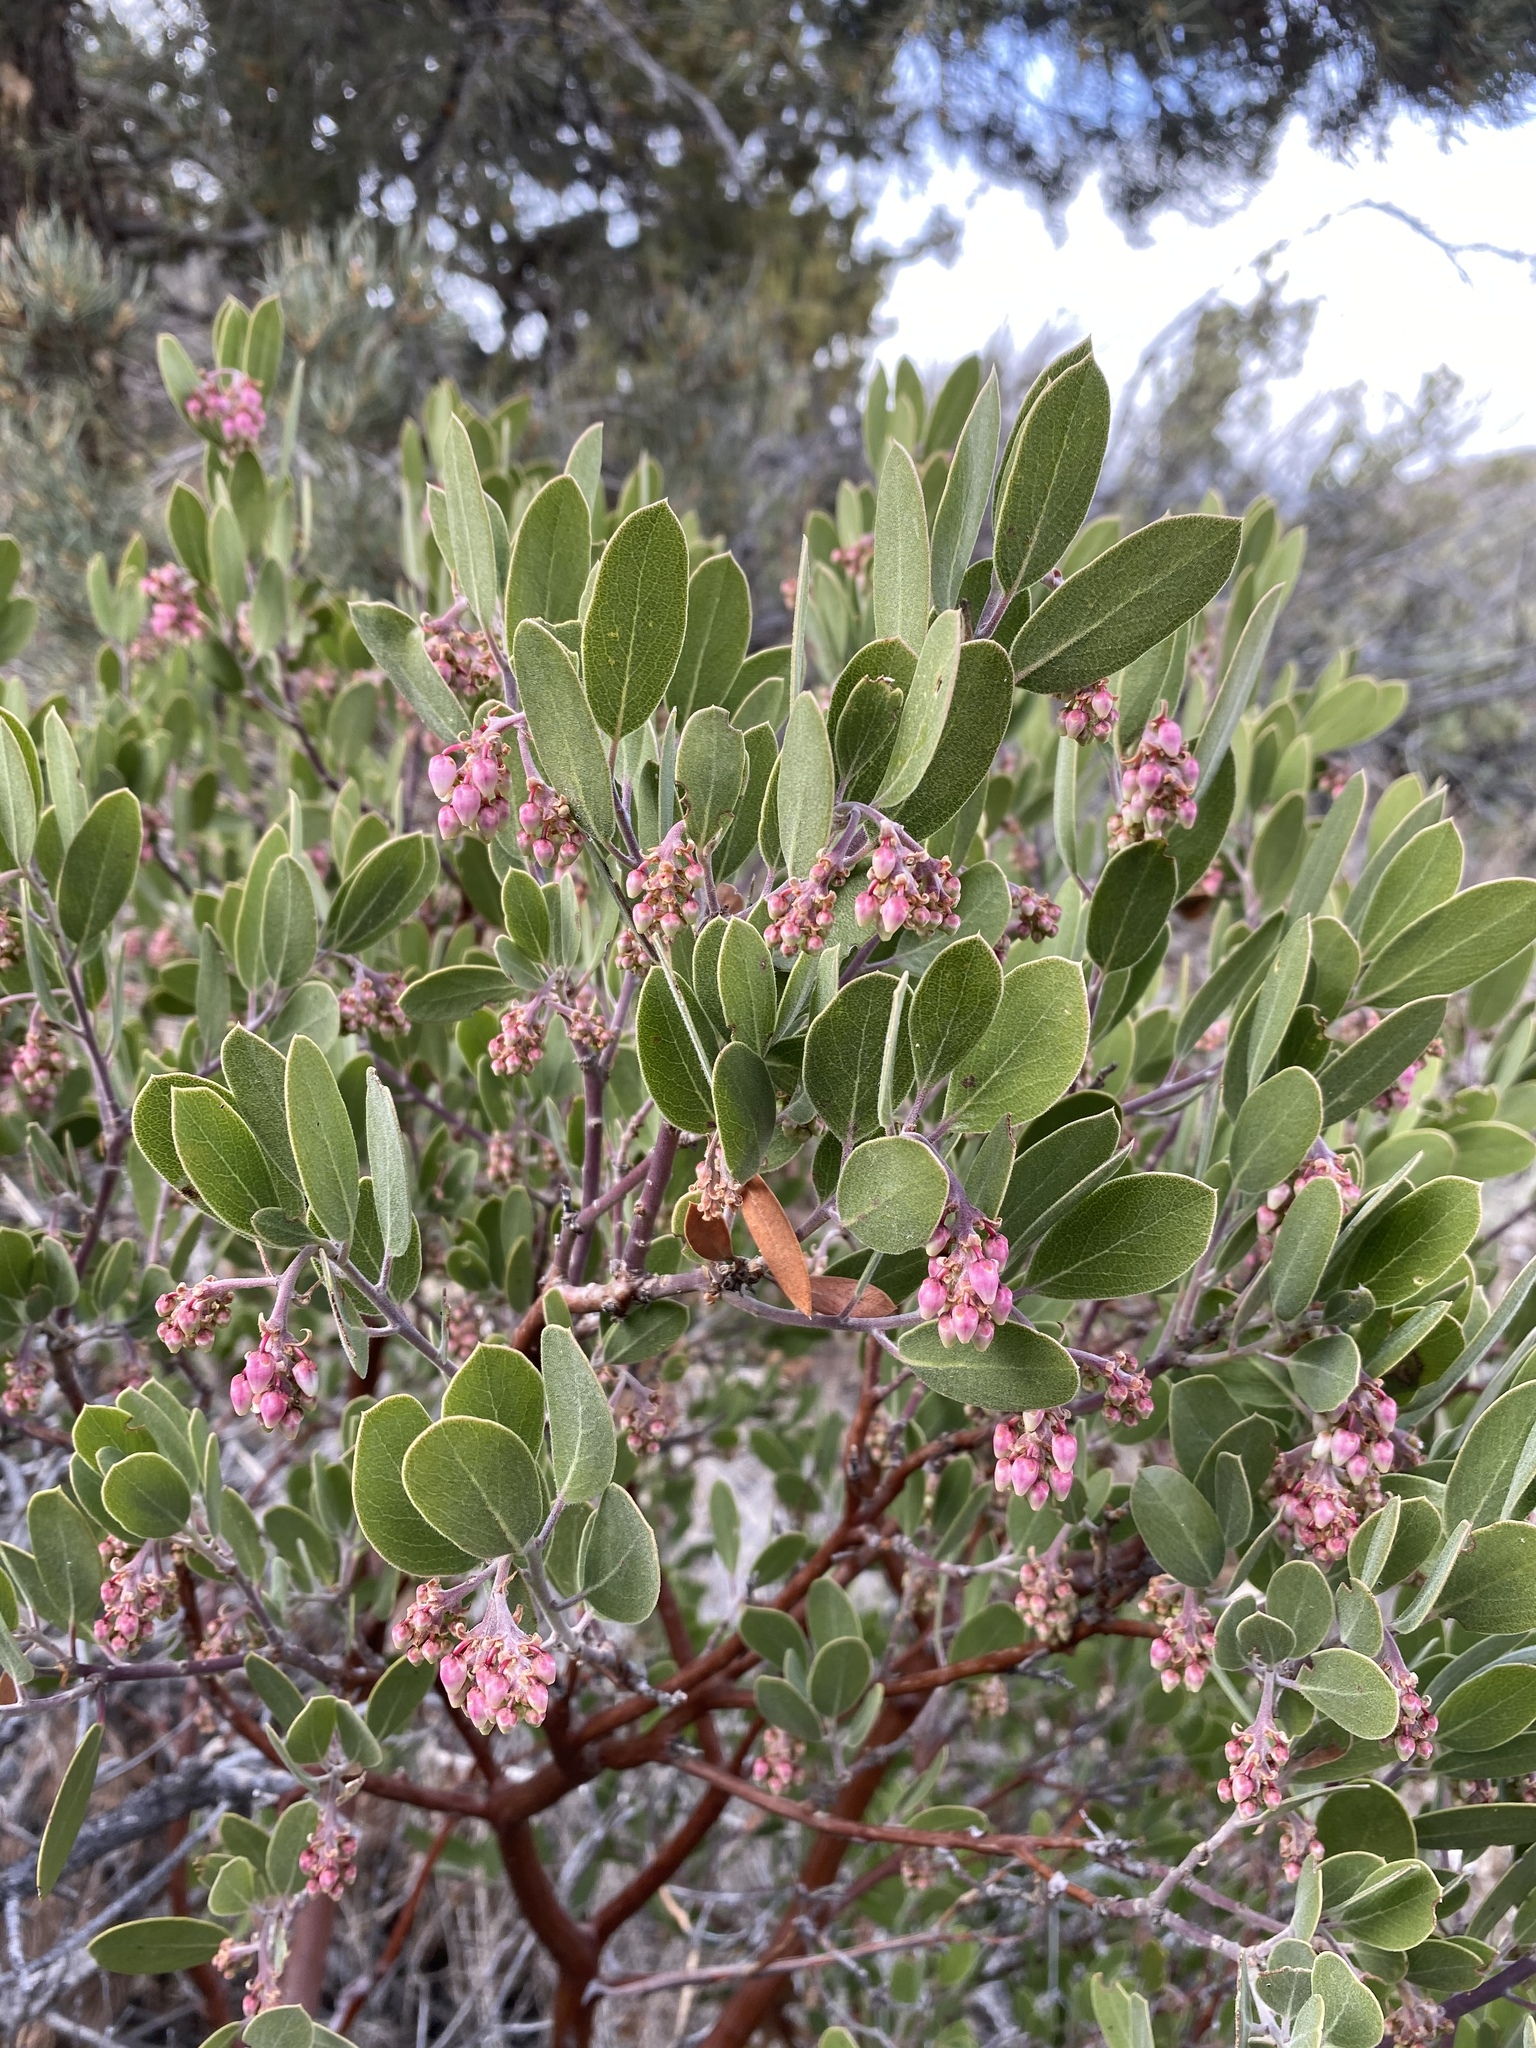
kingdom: Plantae
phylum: Tracheophyta
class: Magnoliopsida
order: Ericales
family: Ericaceae
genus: Arctostaphylos
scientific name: Arctostaphylos pungens
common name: Mexican manzanita
